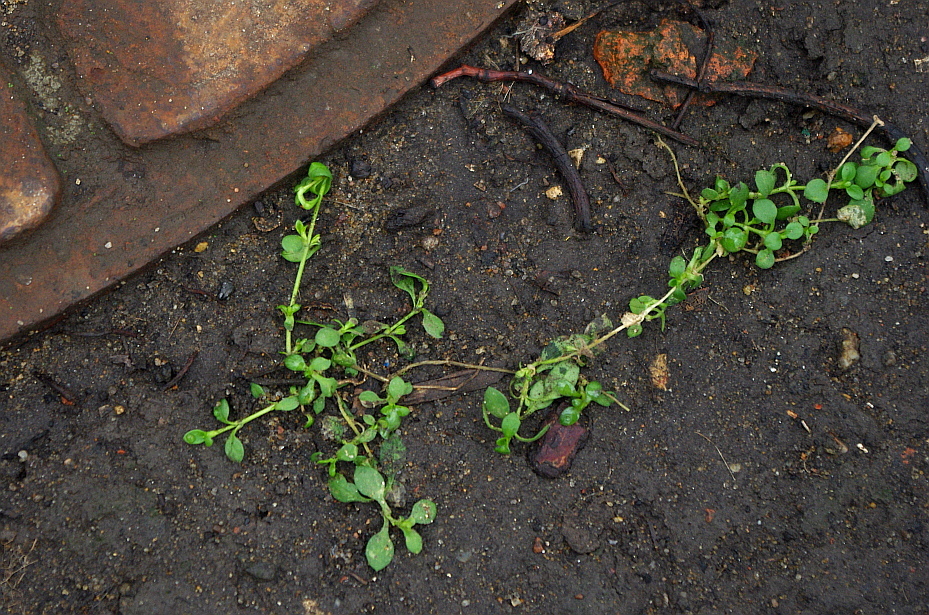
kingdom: Plantae
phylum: Tracheophyta
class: Magnoliopsida
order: Caryophyllales
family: Caryophyllaceae
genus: Stellaria
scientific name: Stellaria media
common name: Common chickweed
